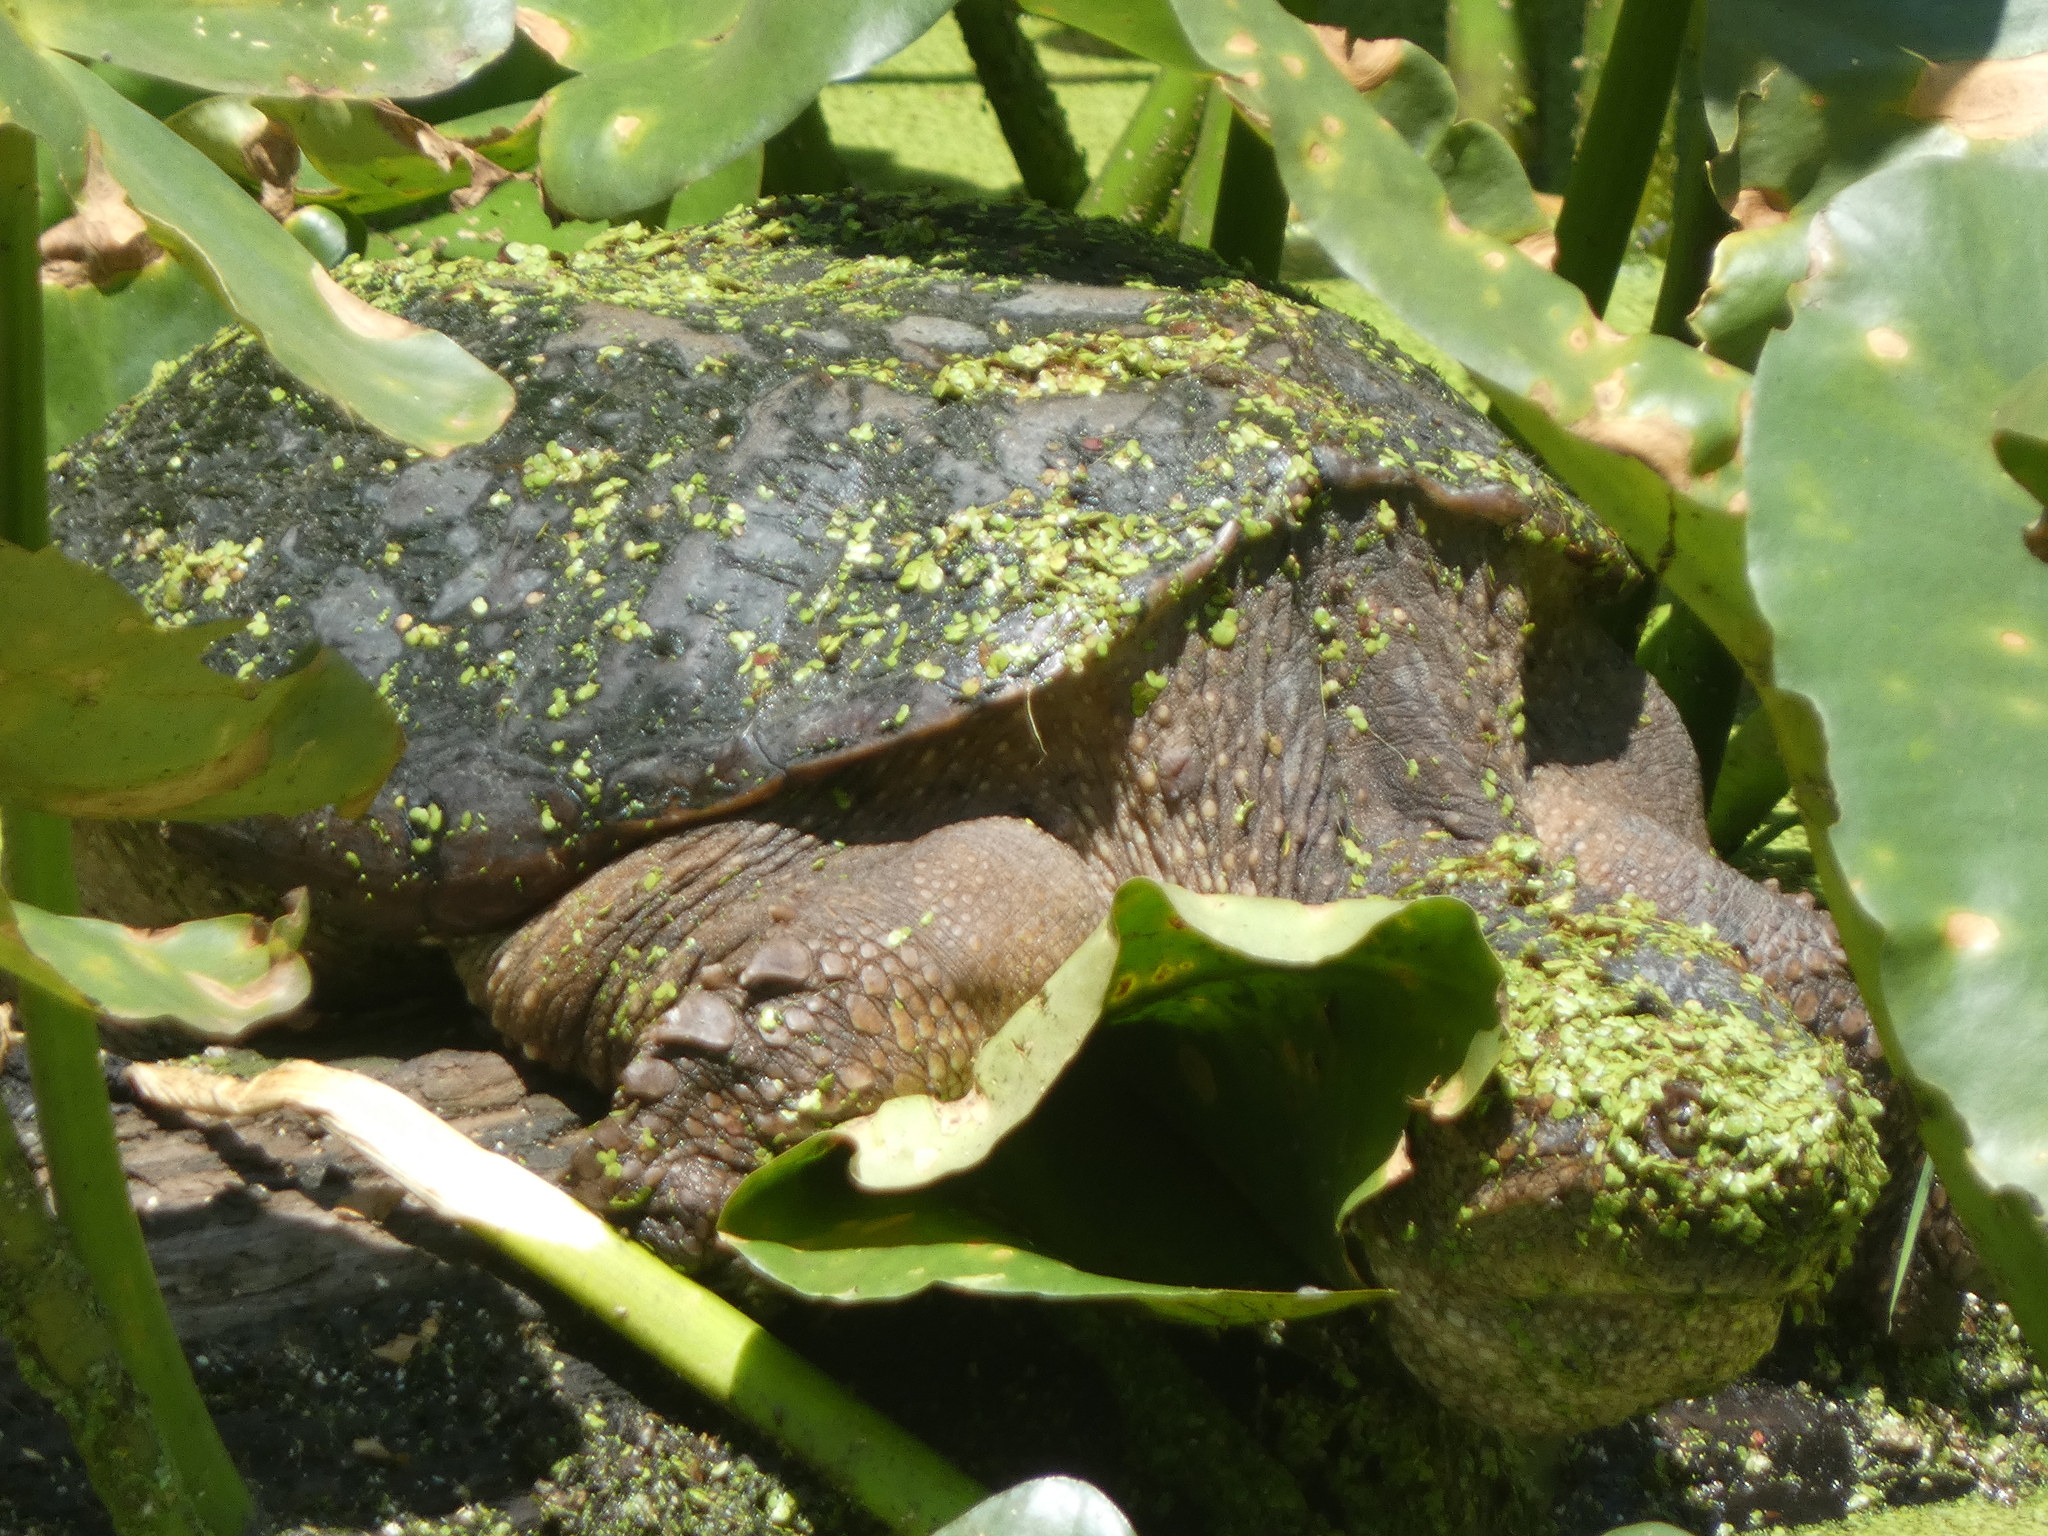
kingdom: Animalia
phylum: Chordata
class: Testudines
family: Chelydridae
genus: Chelydra
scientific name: Chelydra serpentina
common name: Common snapping turtle
